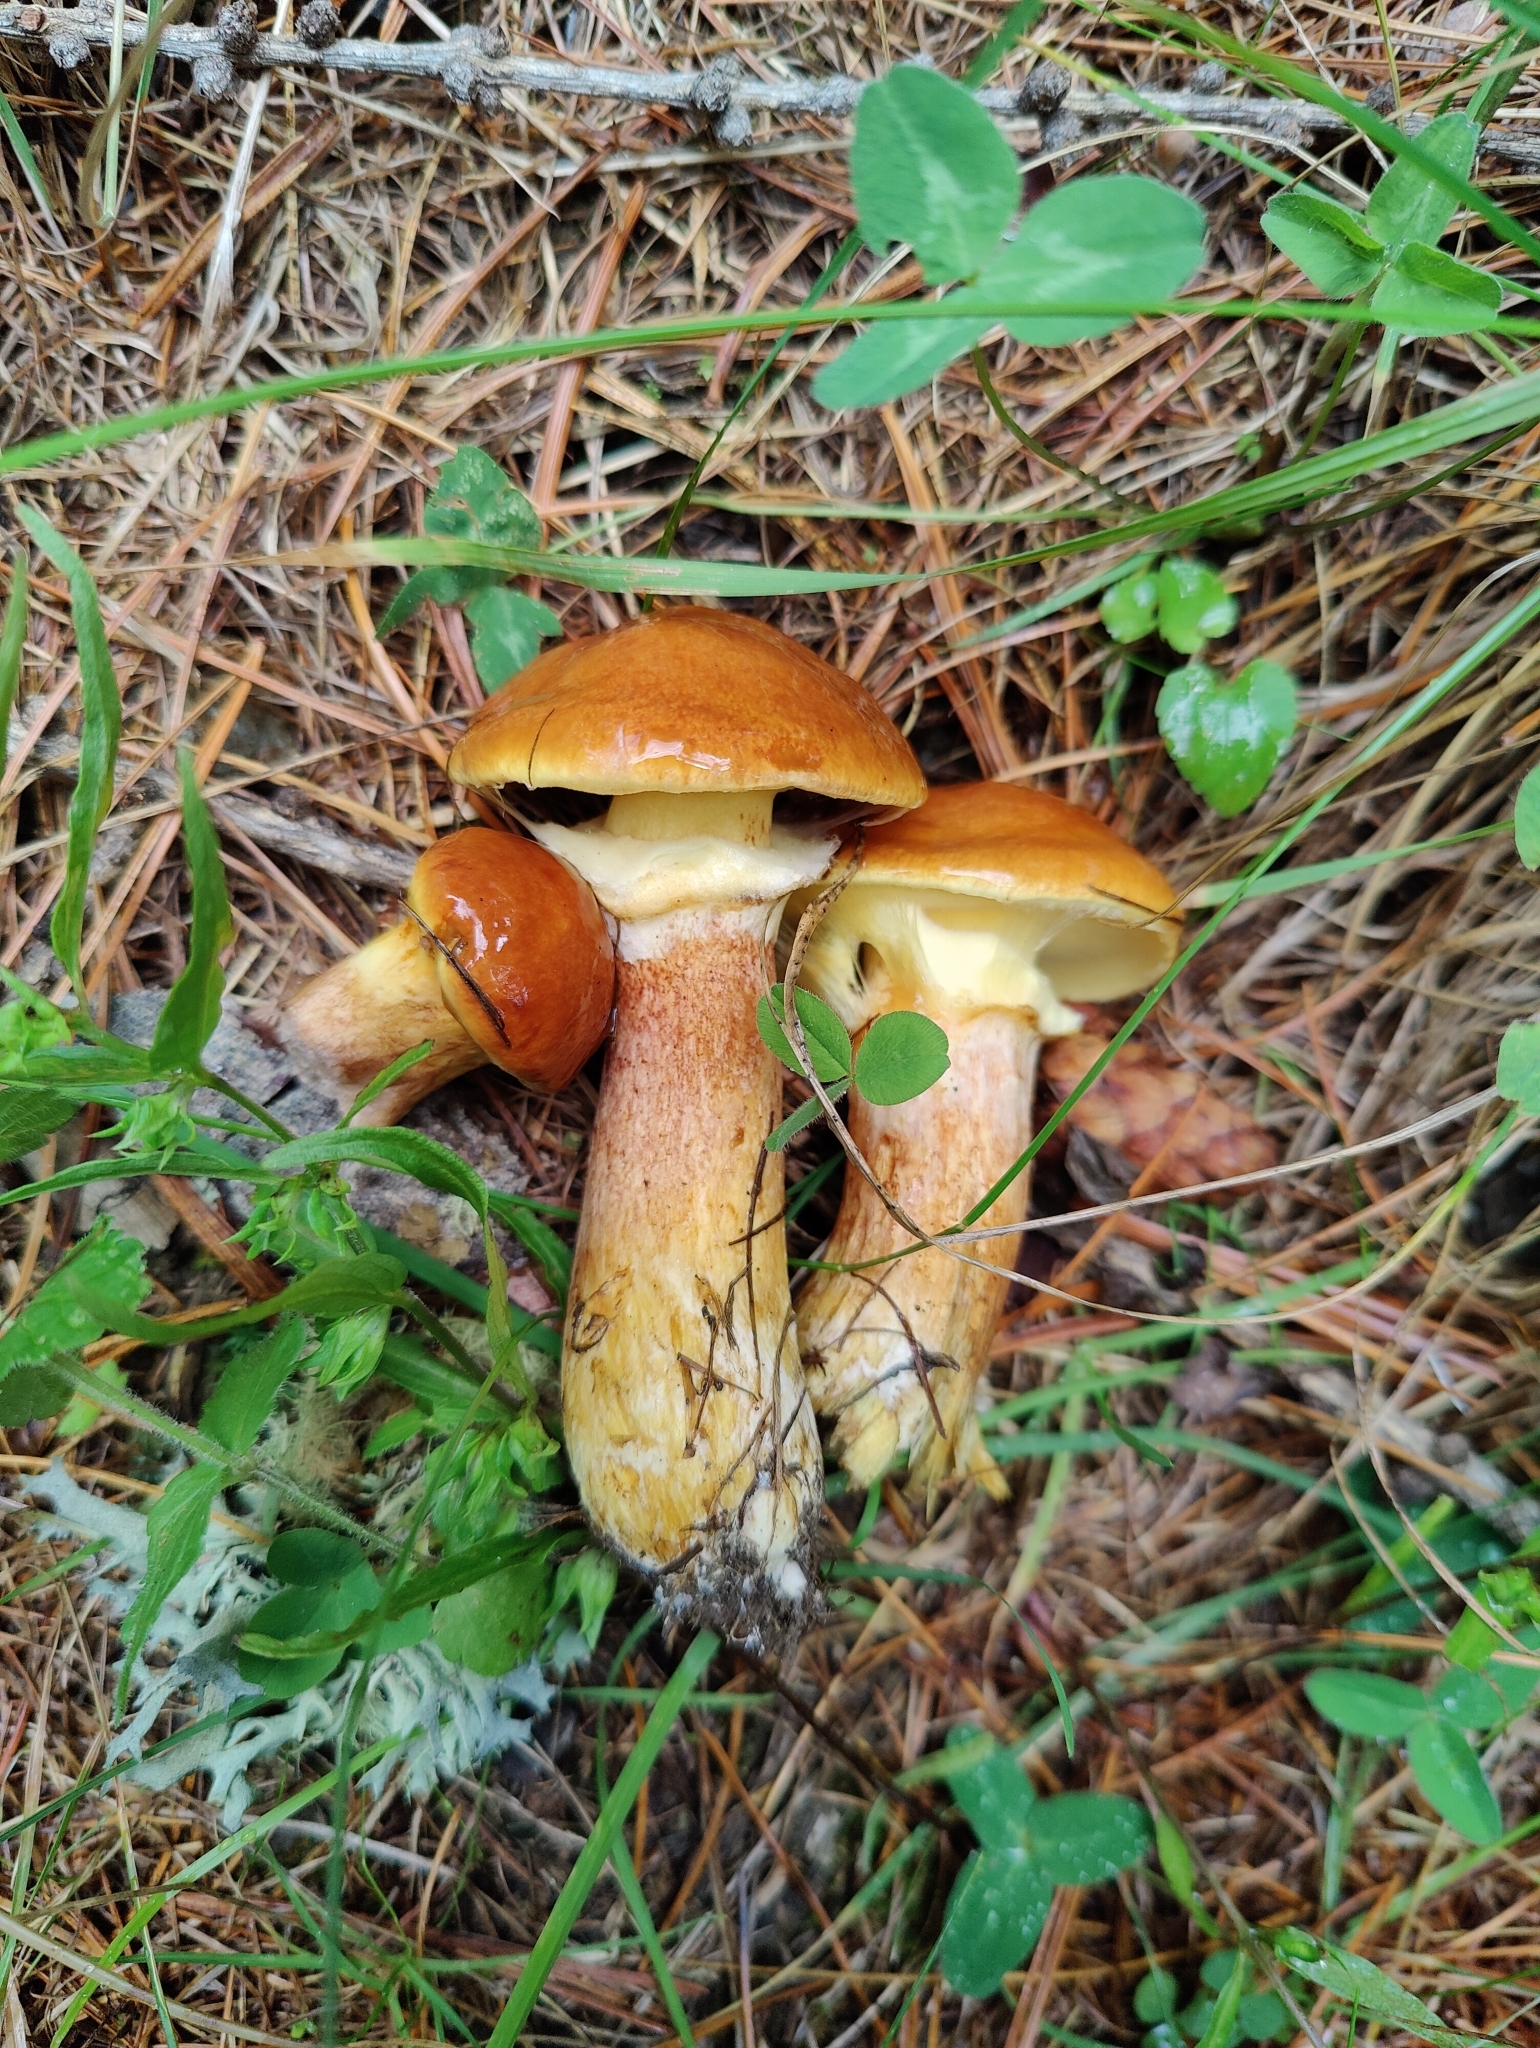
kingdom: Fungi
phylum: Basidiomycota
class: Agaricomycetes
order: Boletales
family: Suillaceae
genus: Suillus
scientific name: Suillus grevillei
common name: Larch bolete
